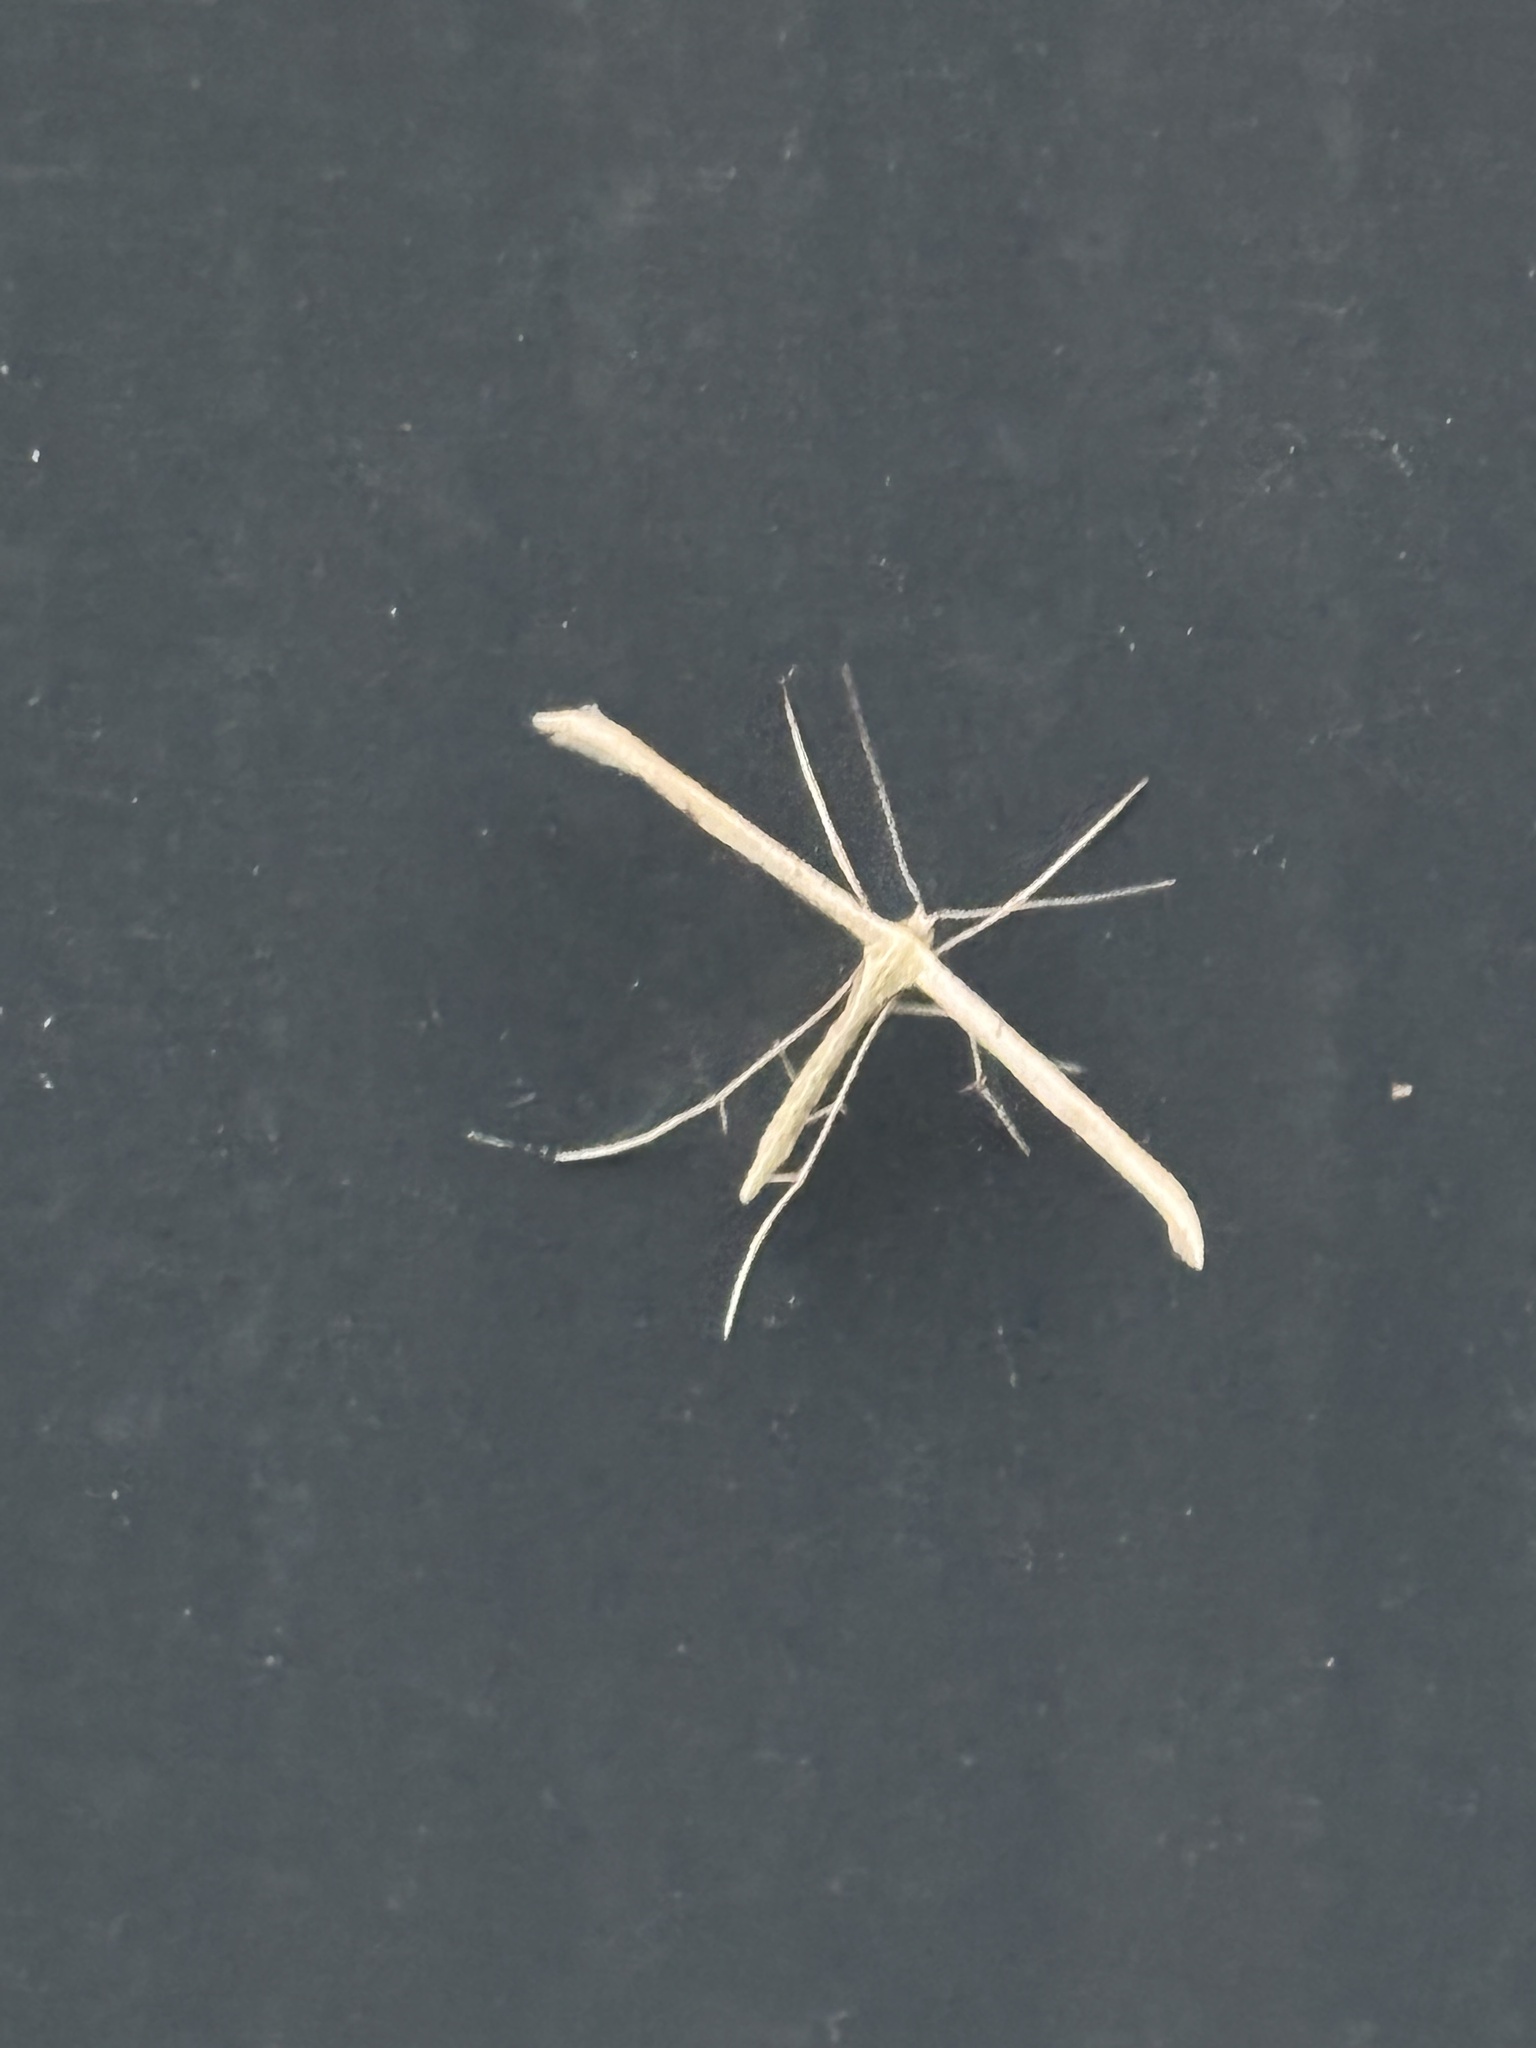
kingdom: Animalia
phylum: Arthropoda
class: Insecta
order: Lepidoptera
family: Pterophoridae
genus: Emmelina
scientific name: Emmelina monodactyla
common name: Common plume
